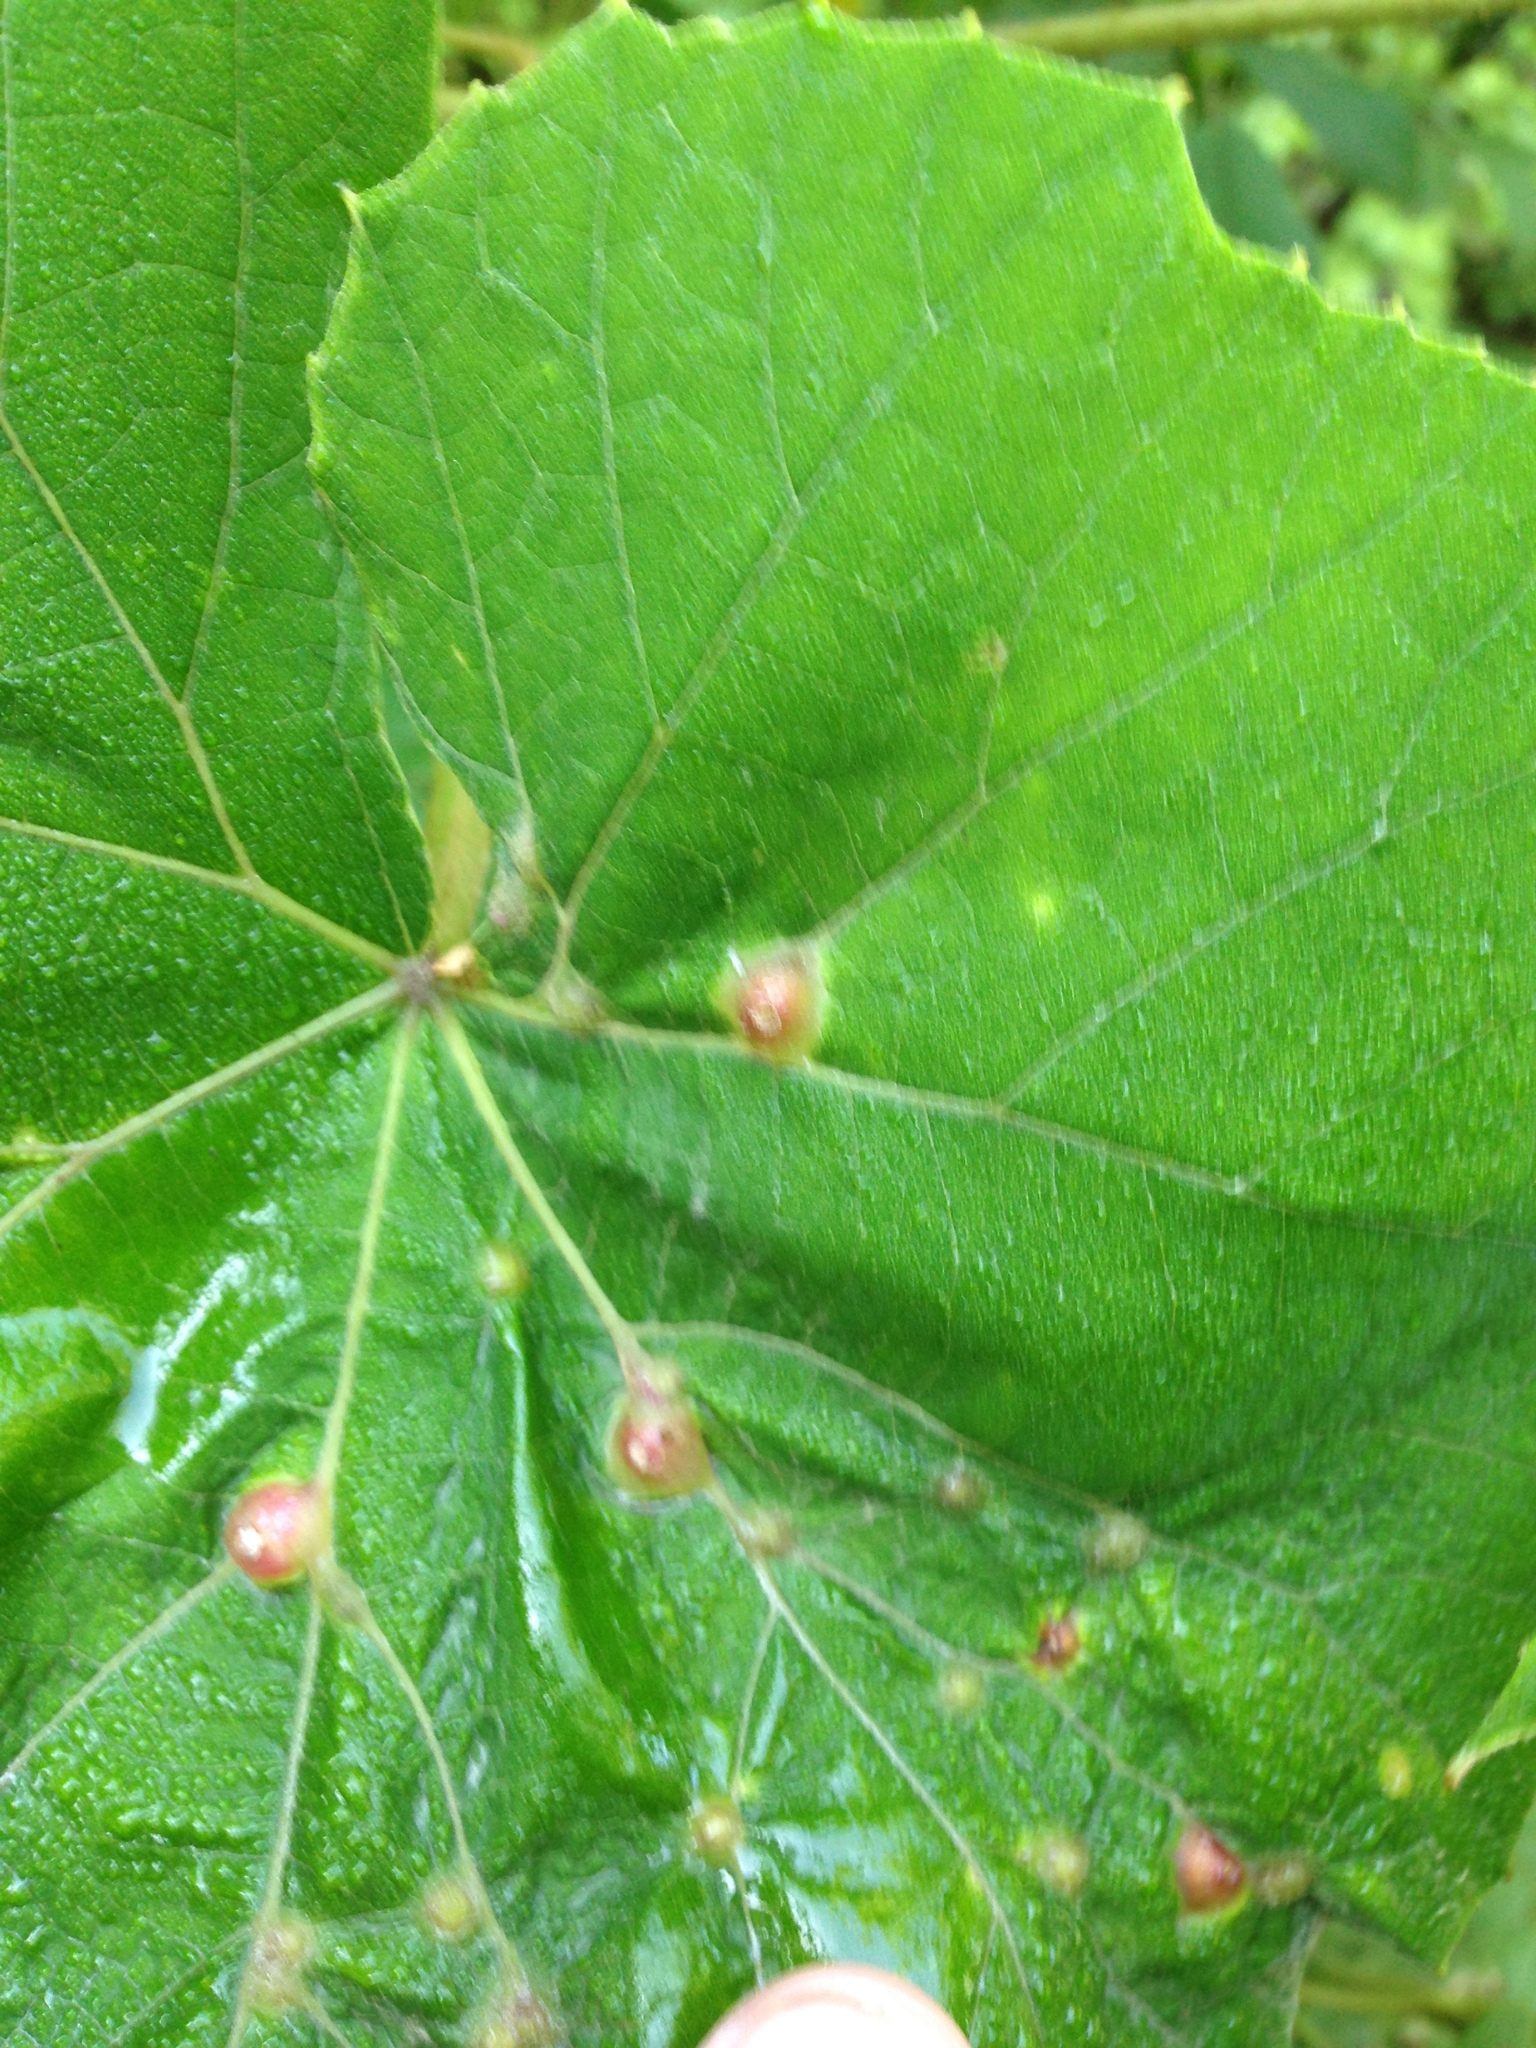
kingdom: Animalia
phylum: Arthropoda
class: Insecta
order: Diptera
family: Cecidomyiidae
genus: Vitisiella
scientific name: Vitisiella brevicauda
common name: Grape tumid gallmaker midge
